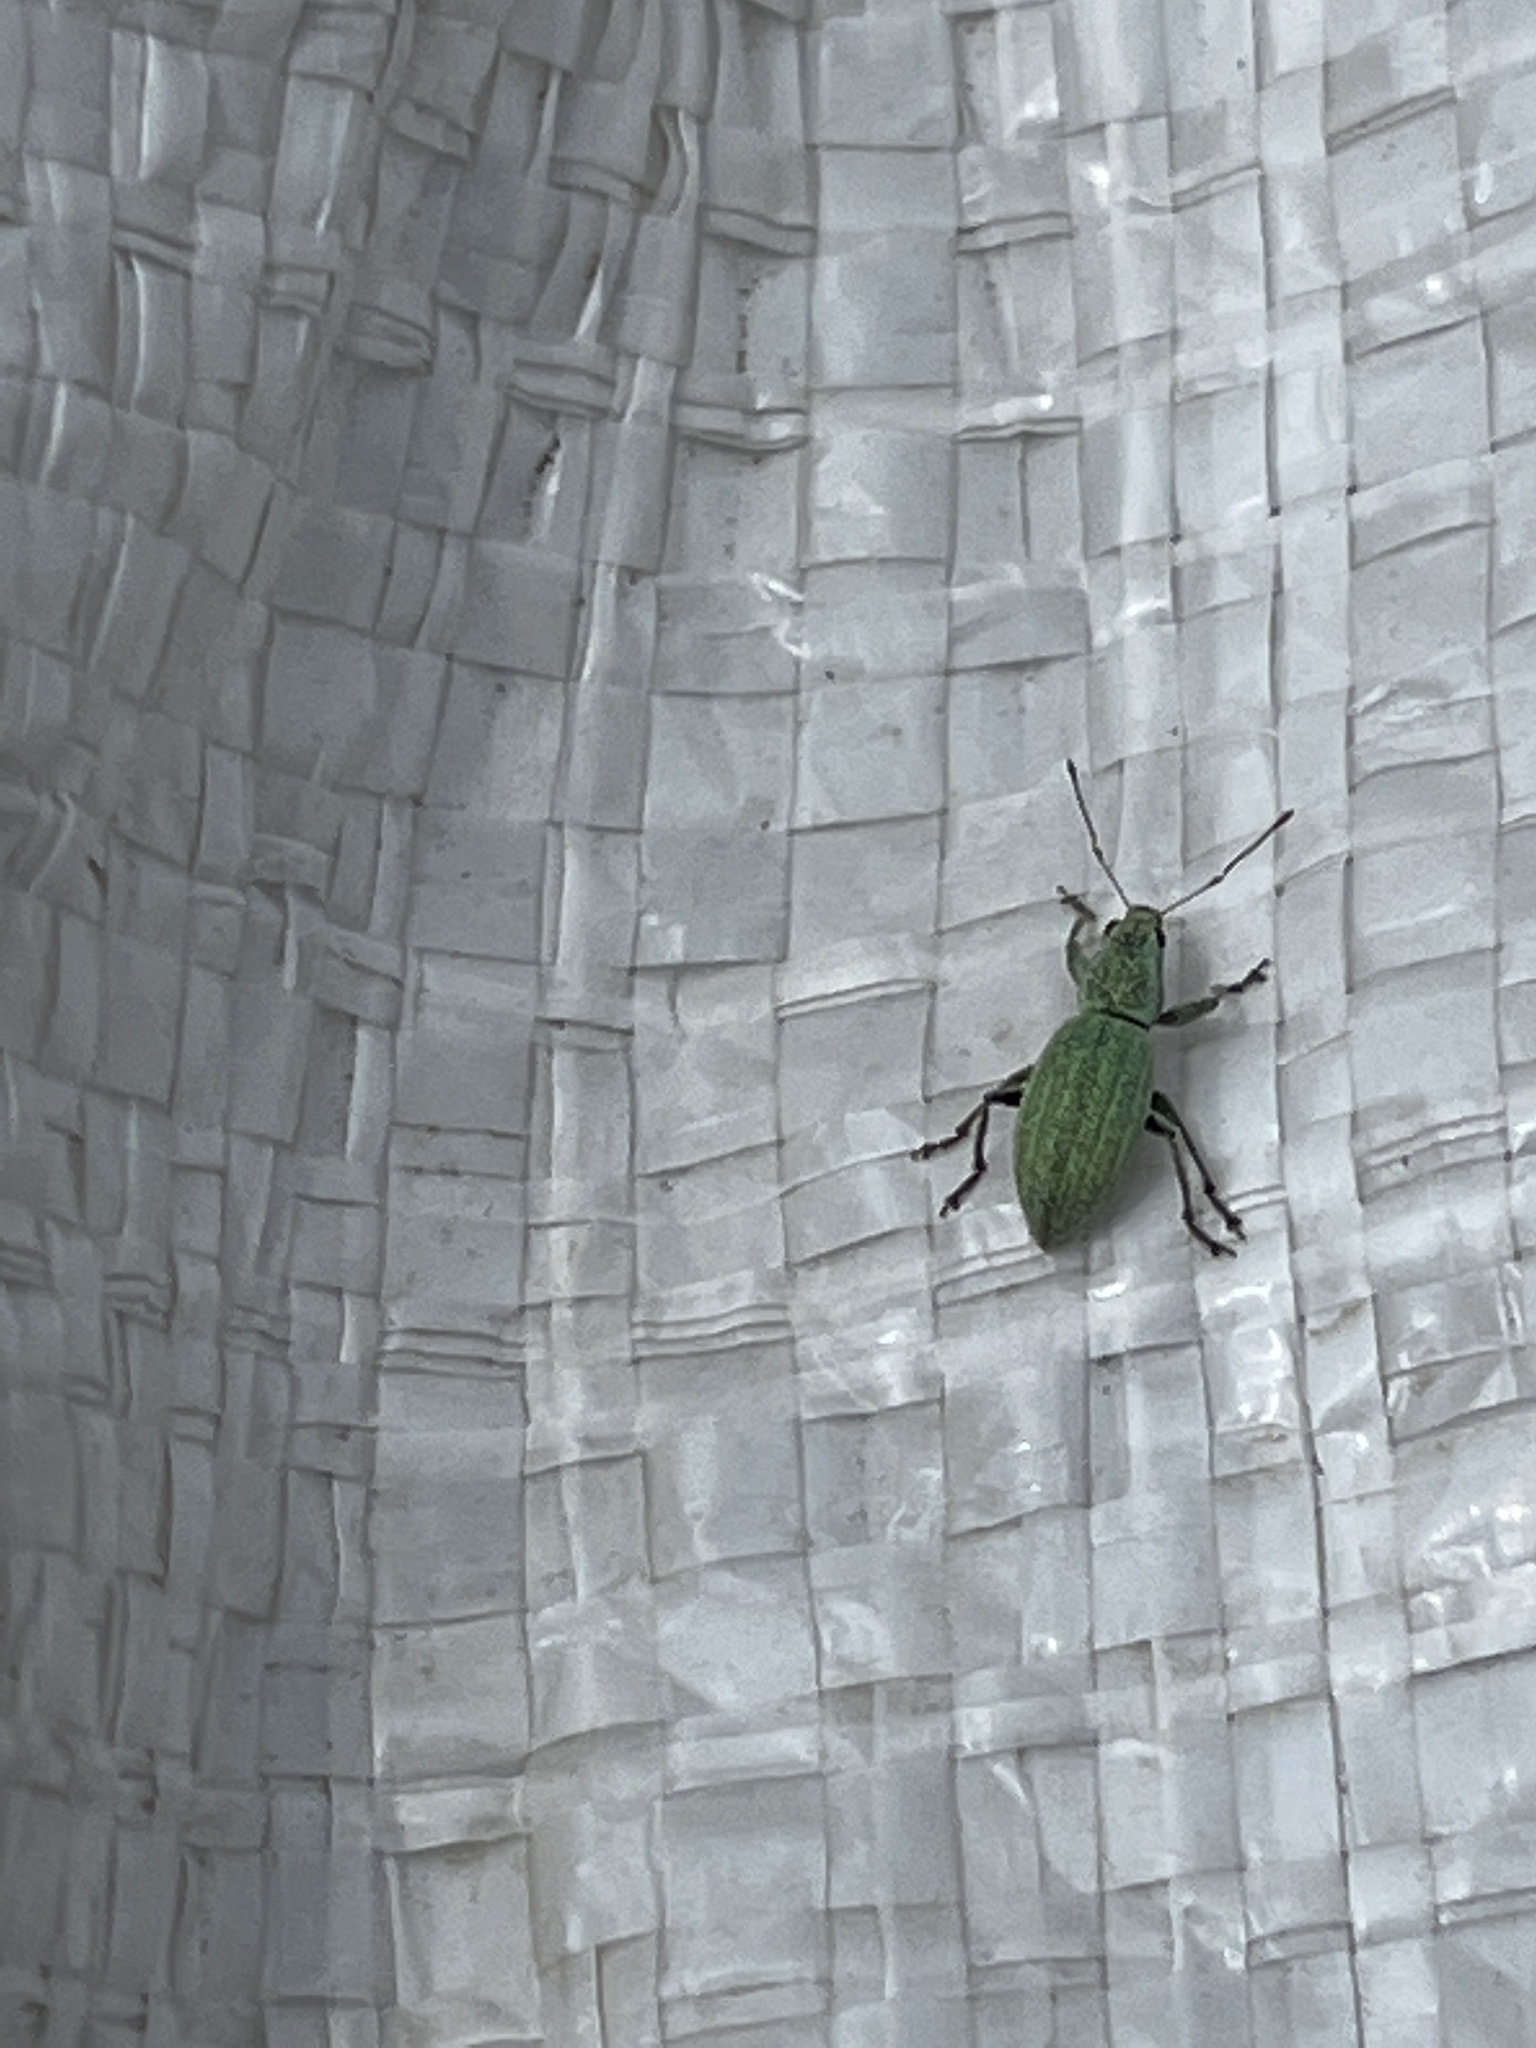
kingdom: Animalia
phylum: Arthropoda
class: Insecta
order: Coleoptera
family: Curculionidae
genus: Eusomus
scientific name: Eusomus ovulum
